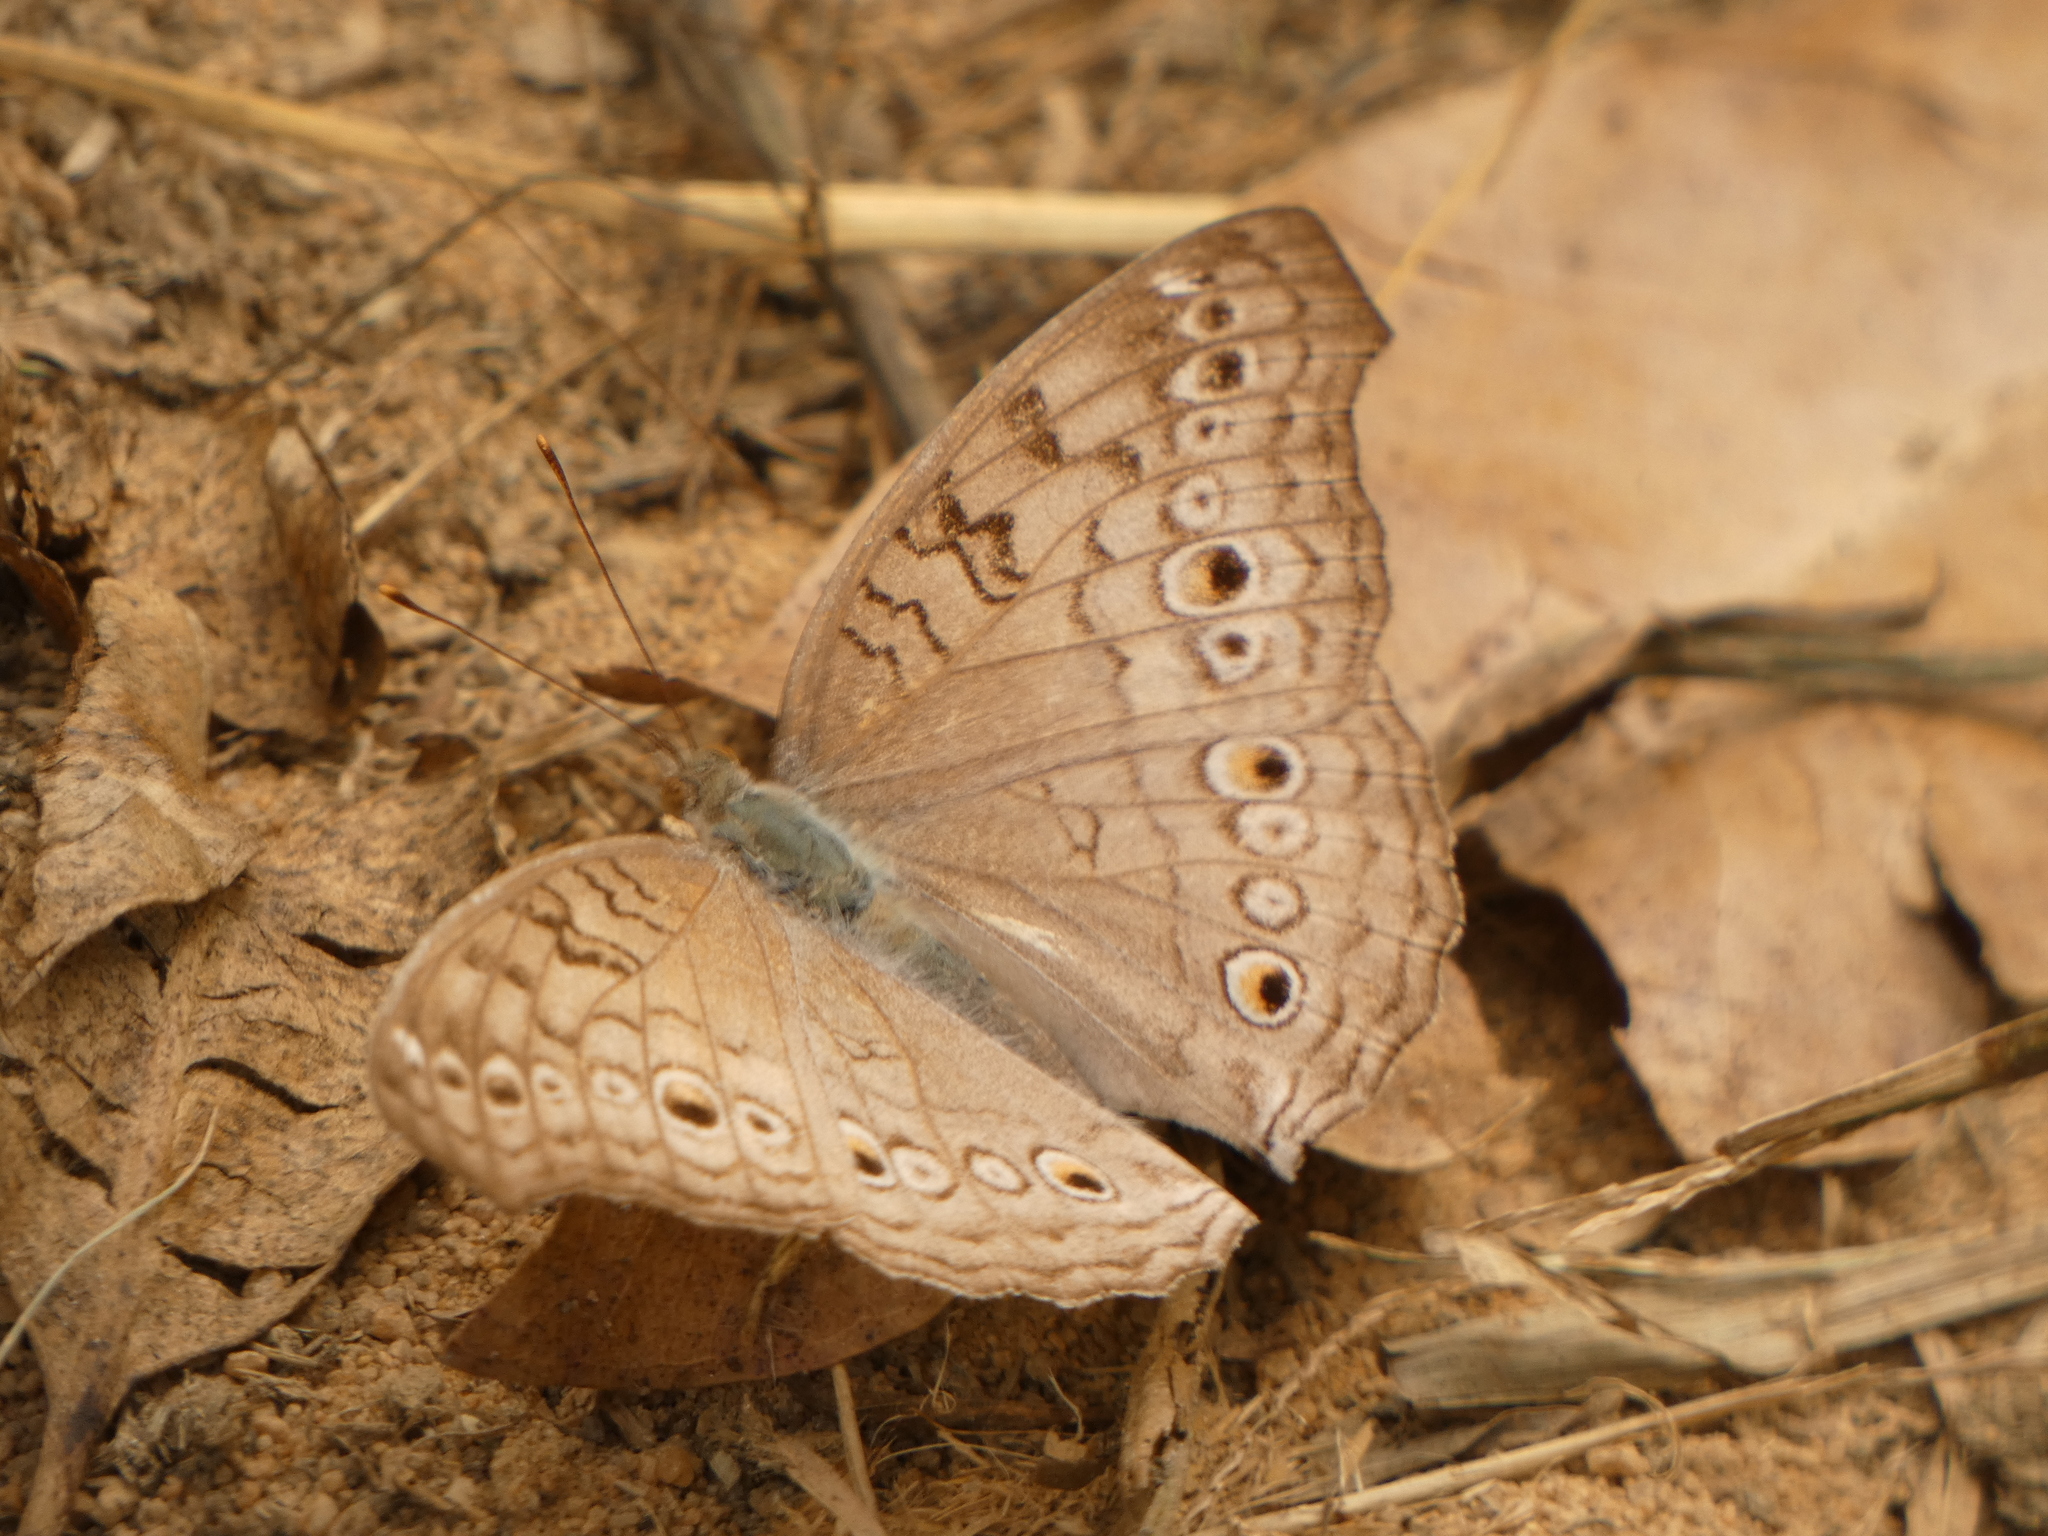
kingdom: Animalia
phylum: Arthropoda
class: Insecta
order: Lepidoptera
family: Nymphalidae
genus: Junonia
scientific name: Junonia atlites
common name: Grey pansy
